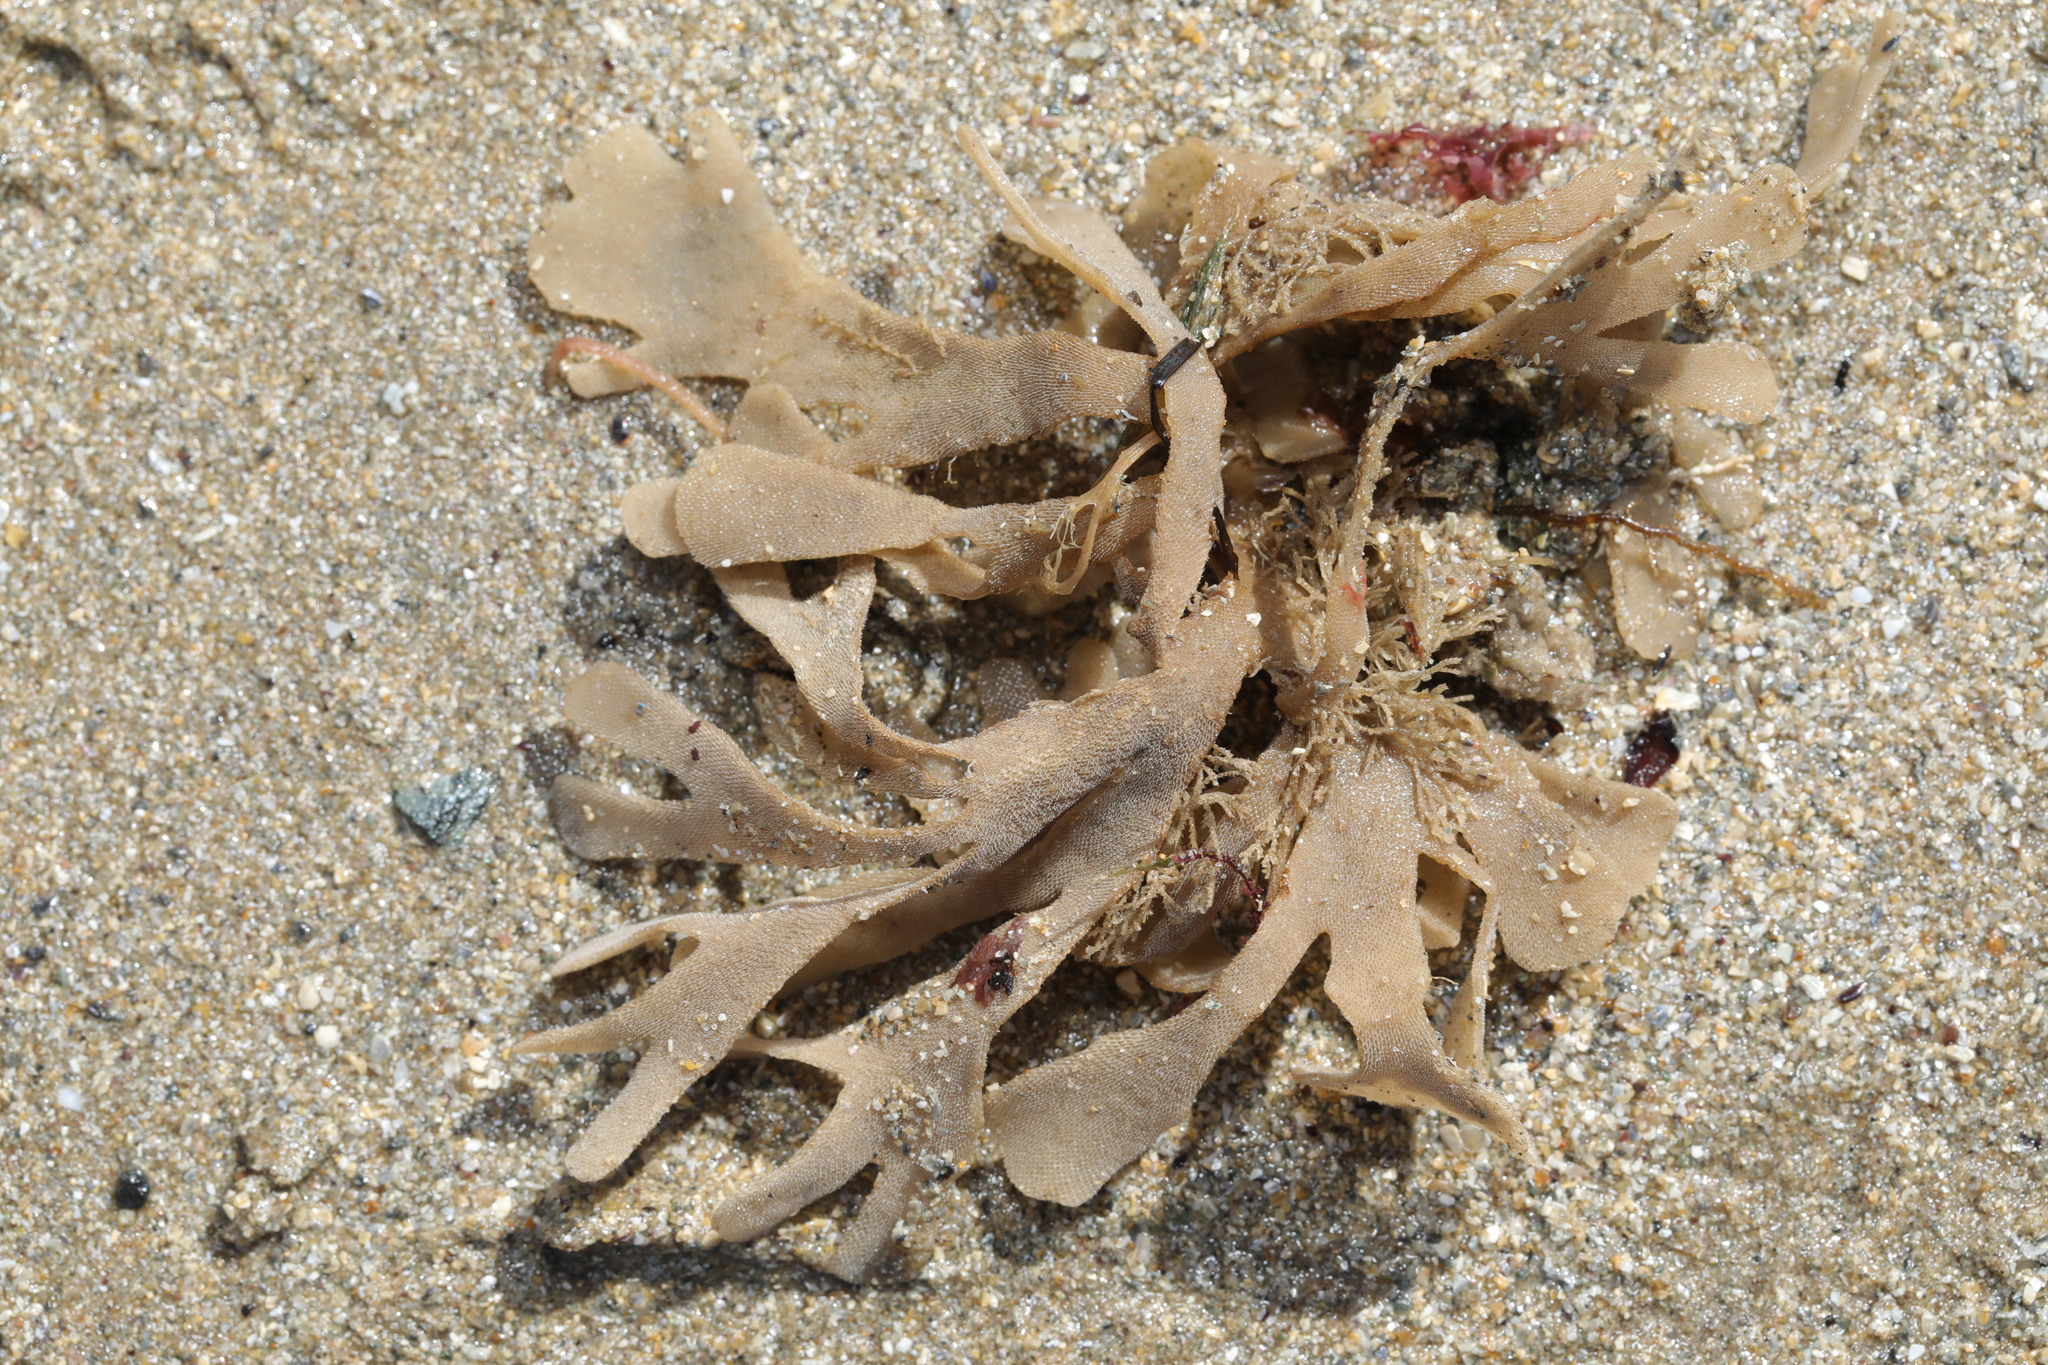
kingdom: Animalia
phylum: Bryozoa
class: Gymnolaemata
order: Cheilostomatida
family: Flustridae
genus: Flustra
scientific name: Flustra foliacea
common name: Hornwrack
